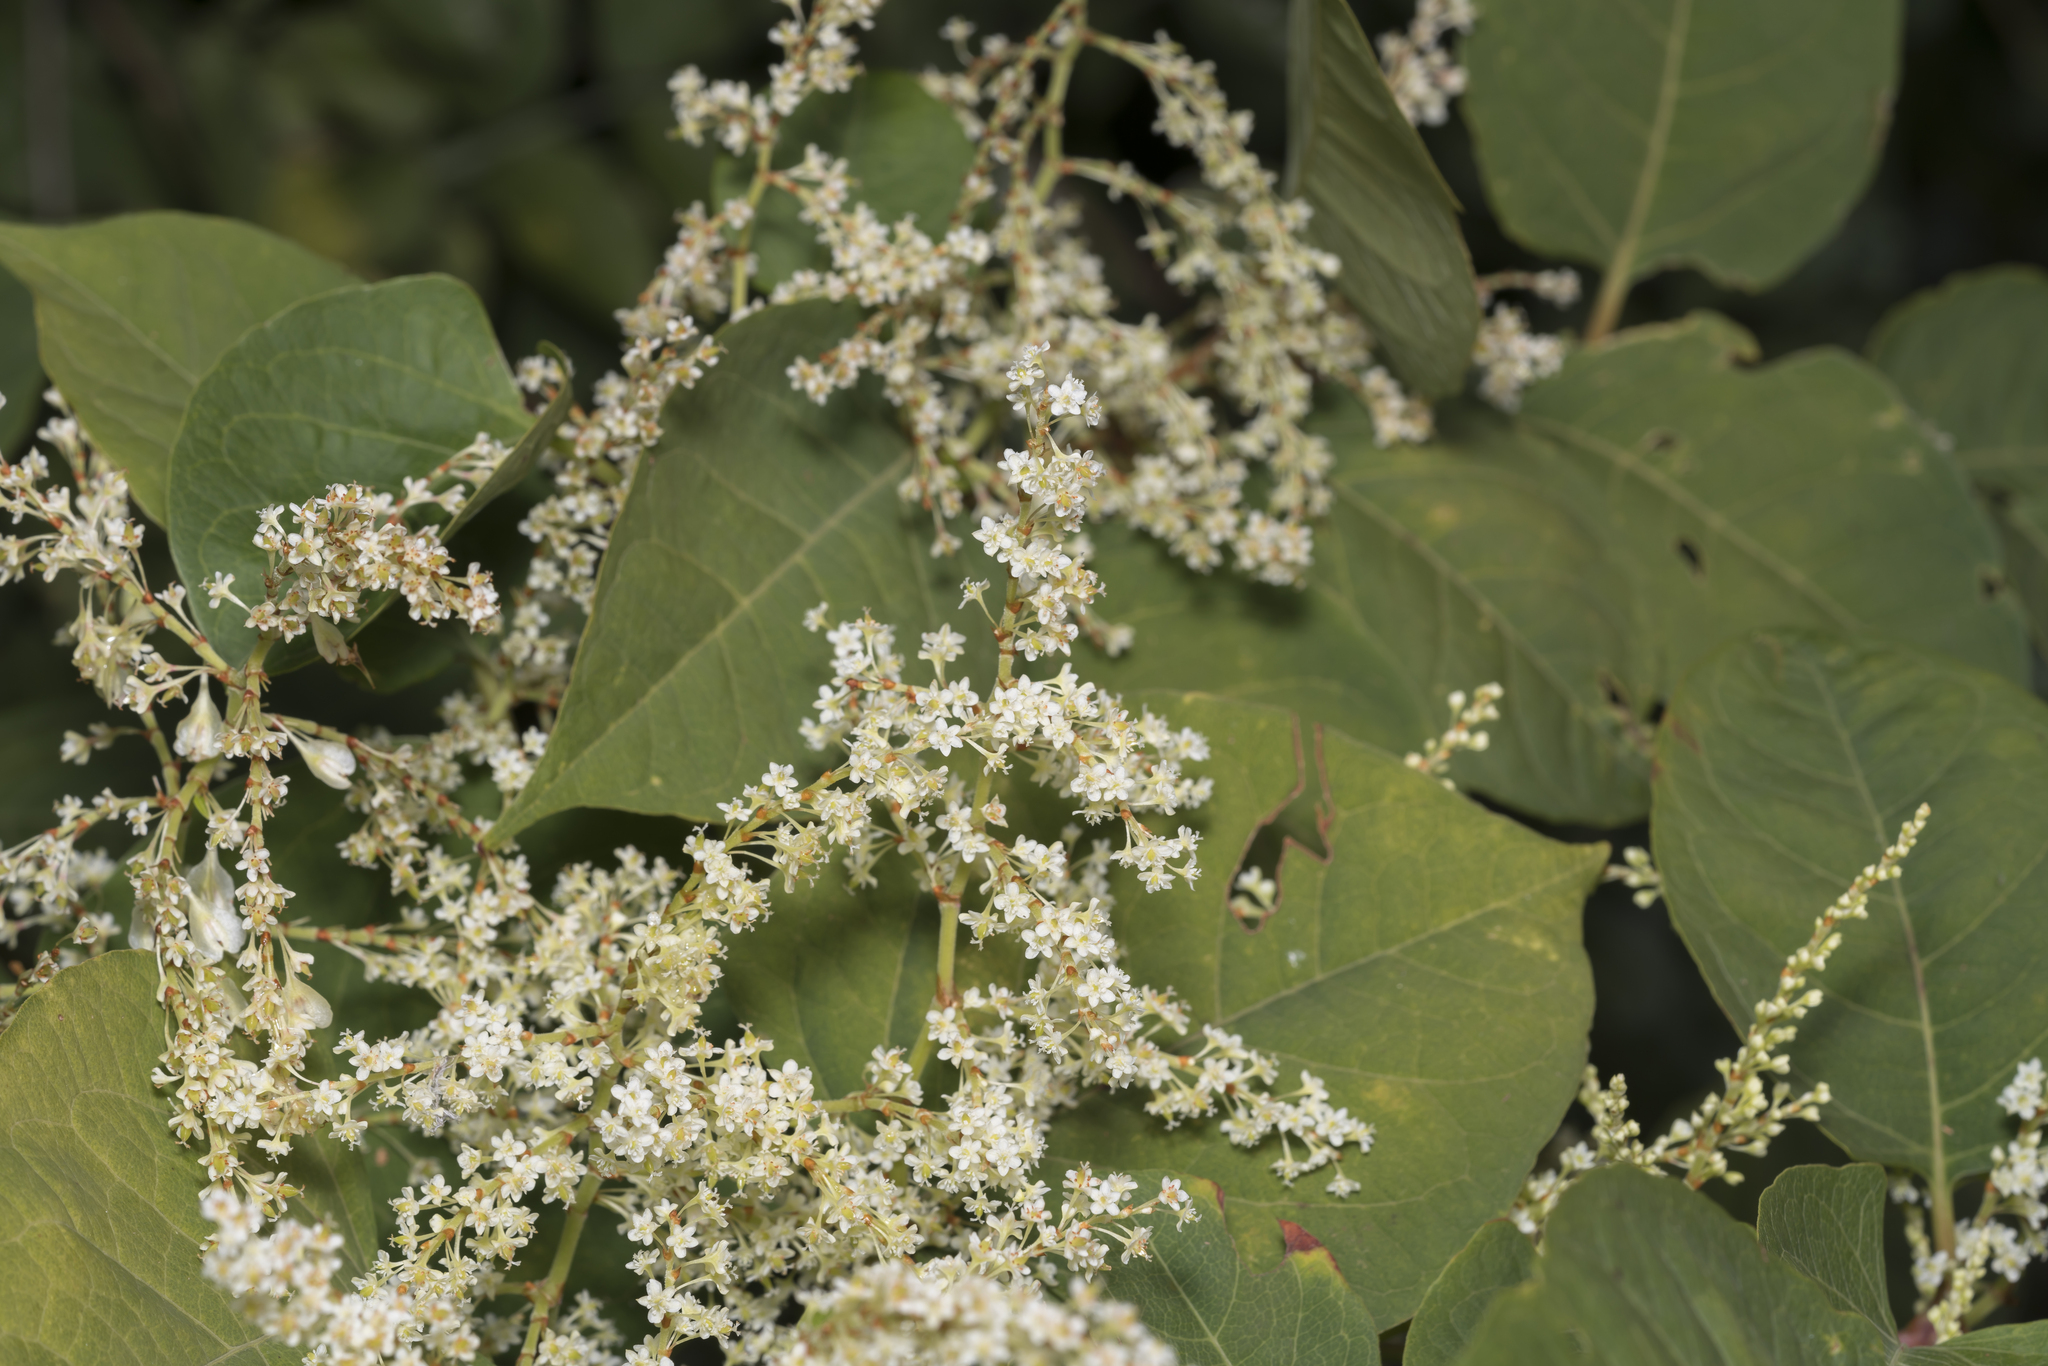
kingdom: Plantae
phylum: Tracheophyta
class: Magnoliopsida
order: Caryophyllales
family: Polygonaceae
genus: Reynoutria
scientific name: Reynoutria japonica
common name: Japanese knotweed
